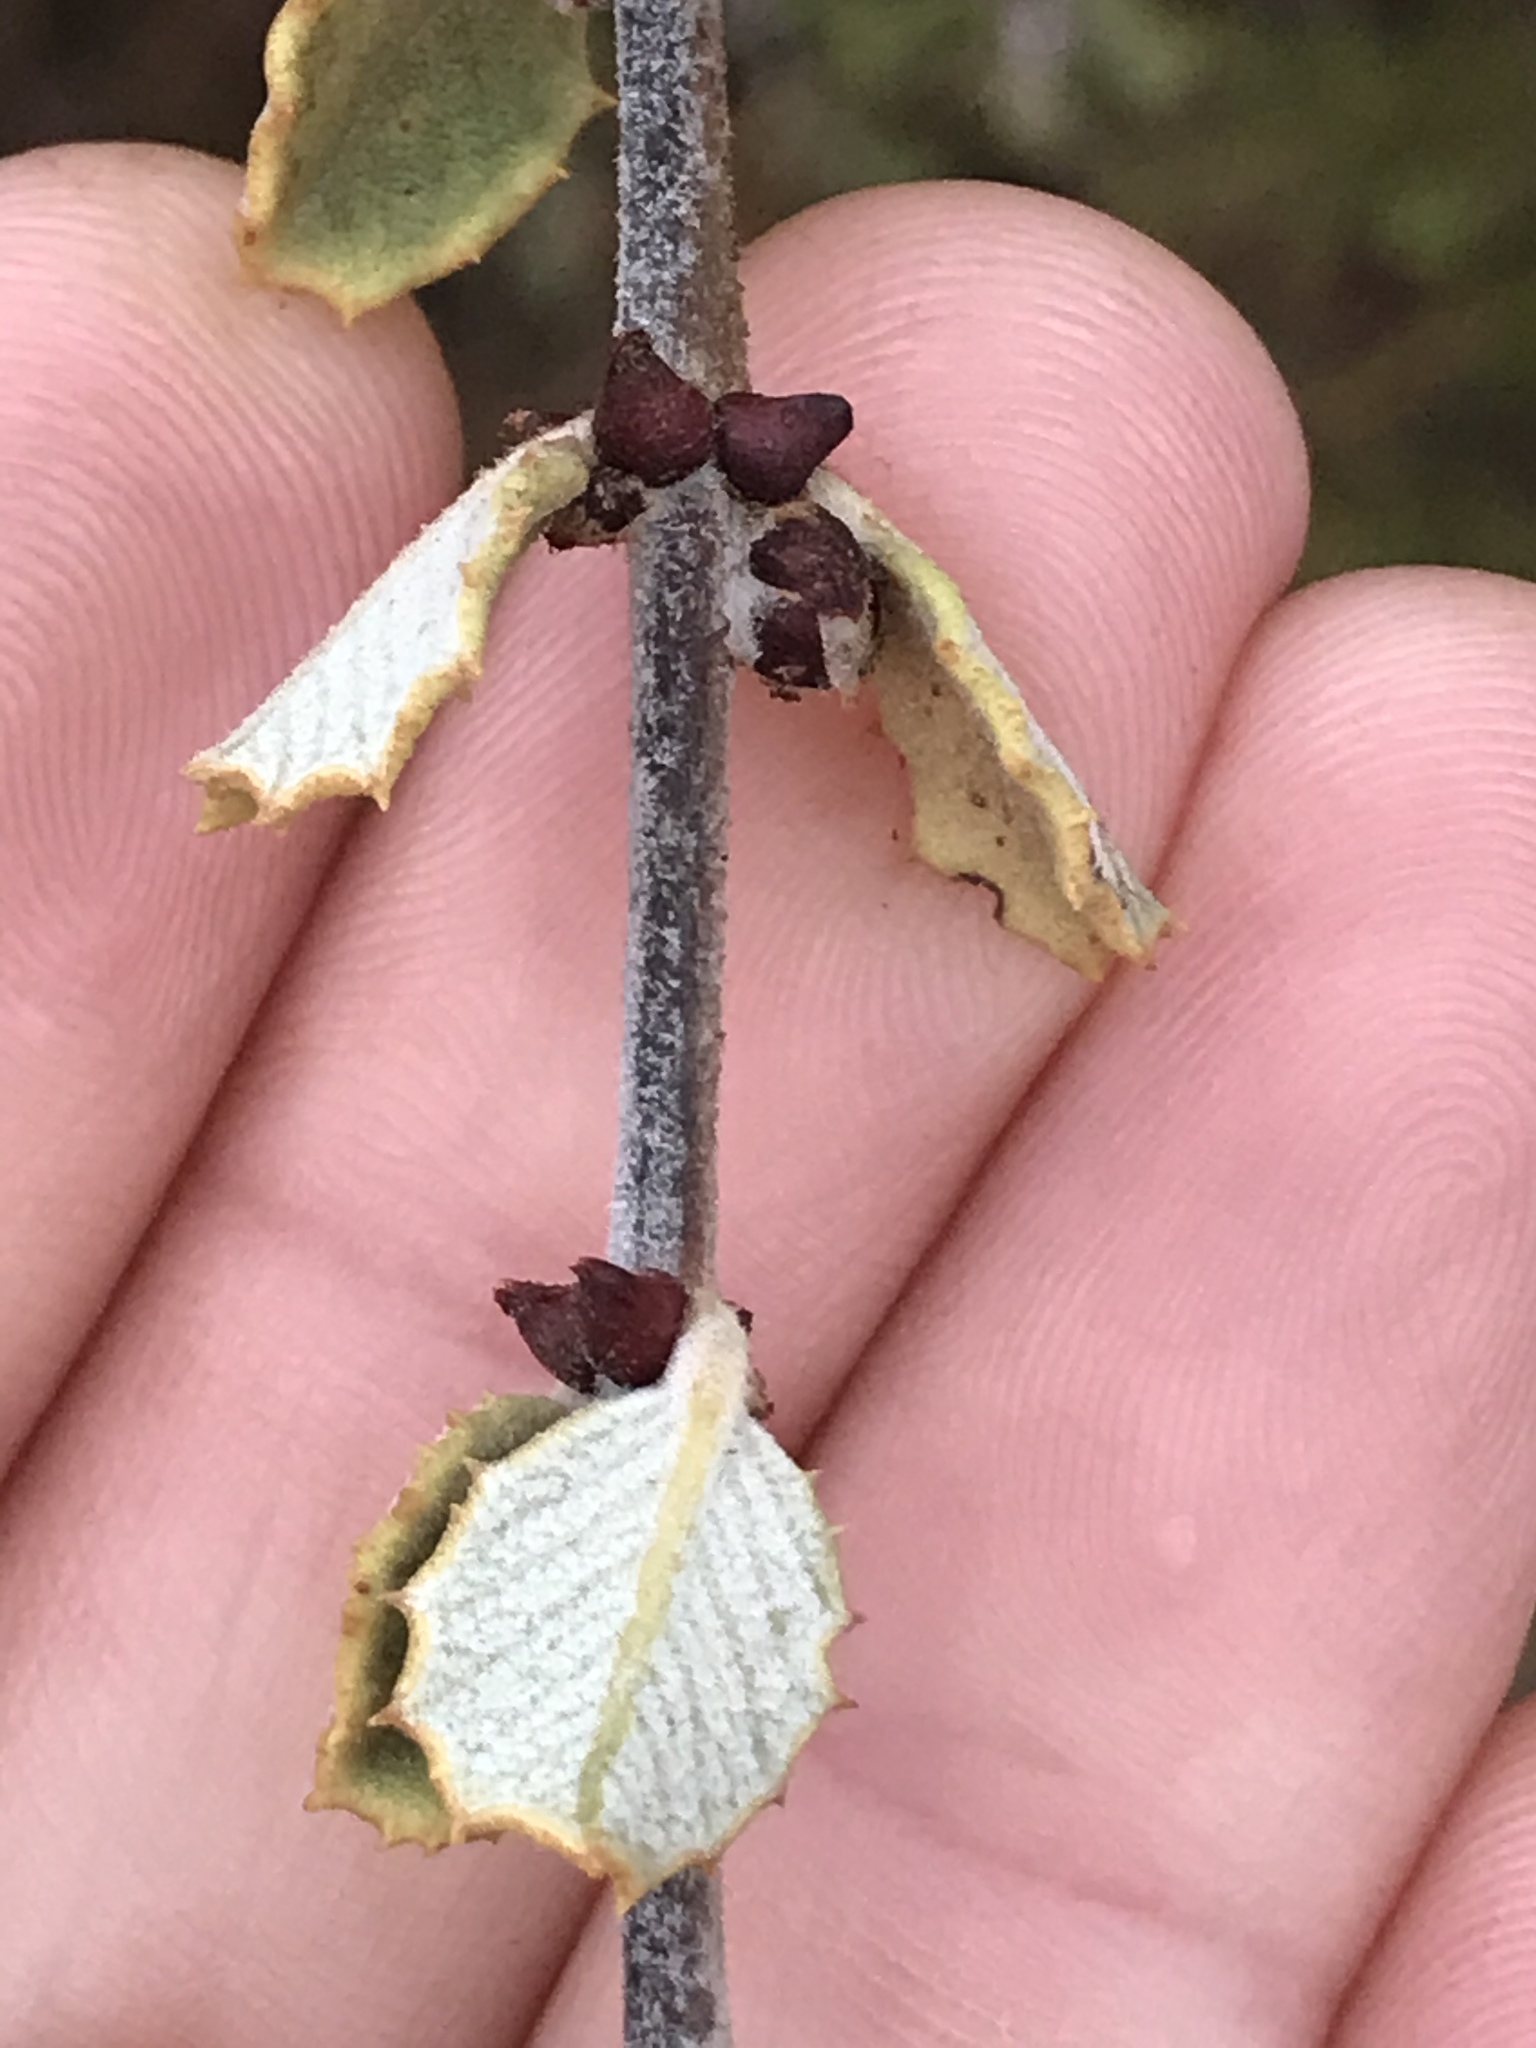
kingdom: Plantae
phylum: Tracheophyta
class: Magnoliopsida
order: Rosales
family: Rhamnaceae
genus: Ceanothus
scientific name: Ceanothus crassifolius
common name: Hoaryleaf ceanothus
